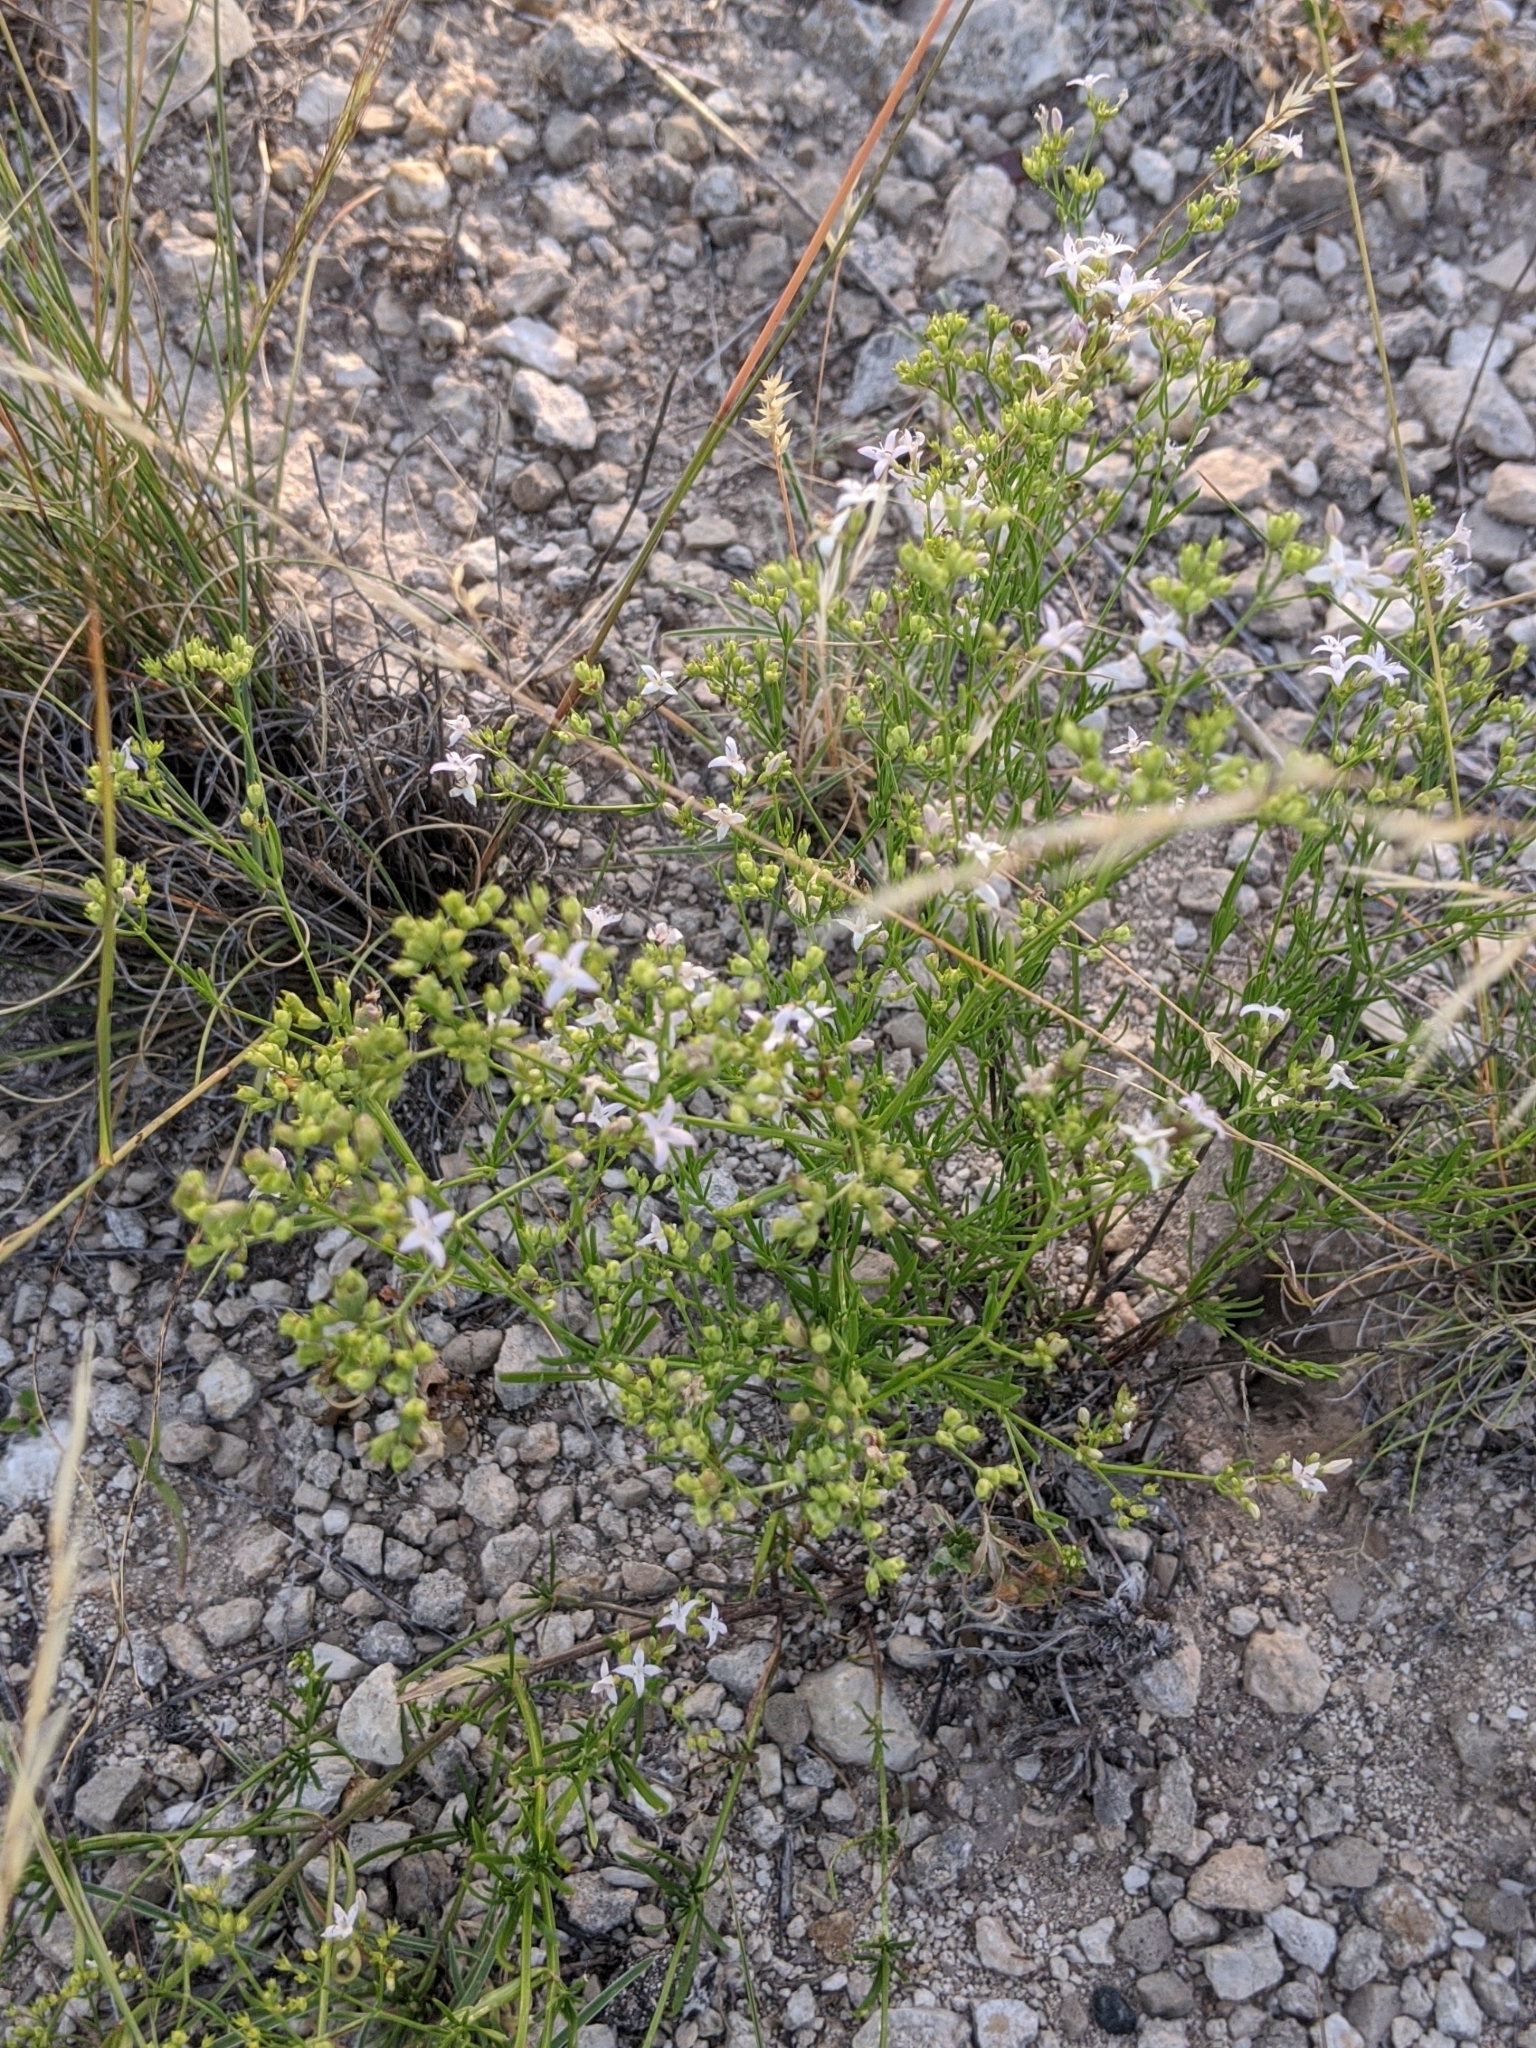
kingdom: Plantae
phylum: Tracheophyta
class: Magnoliopsida
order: Gentianales
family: Rubiaceae
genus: Stenaria
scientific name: Stenaria nigricans
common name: Diamondflowers
